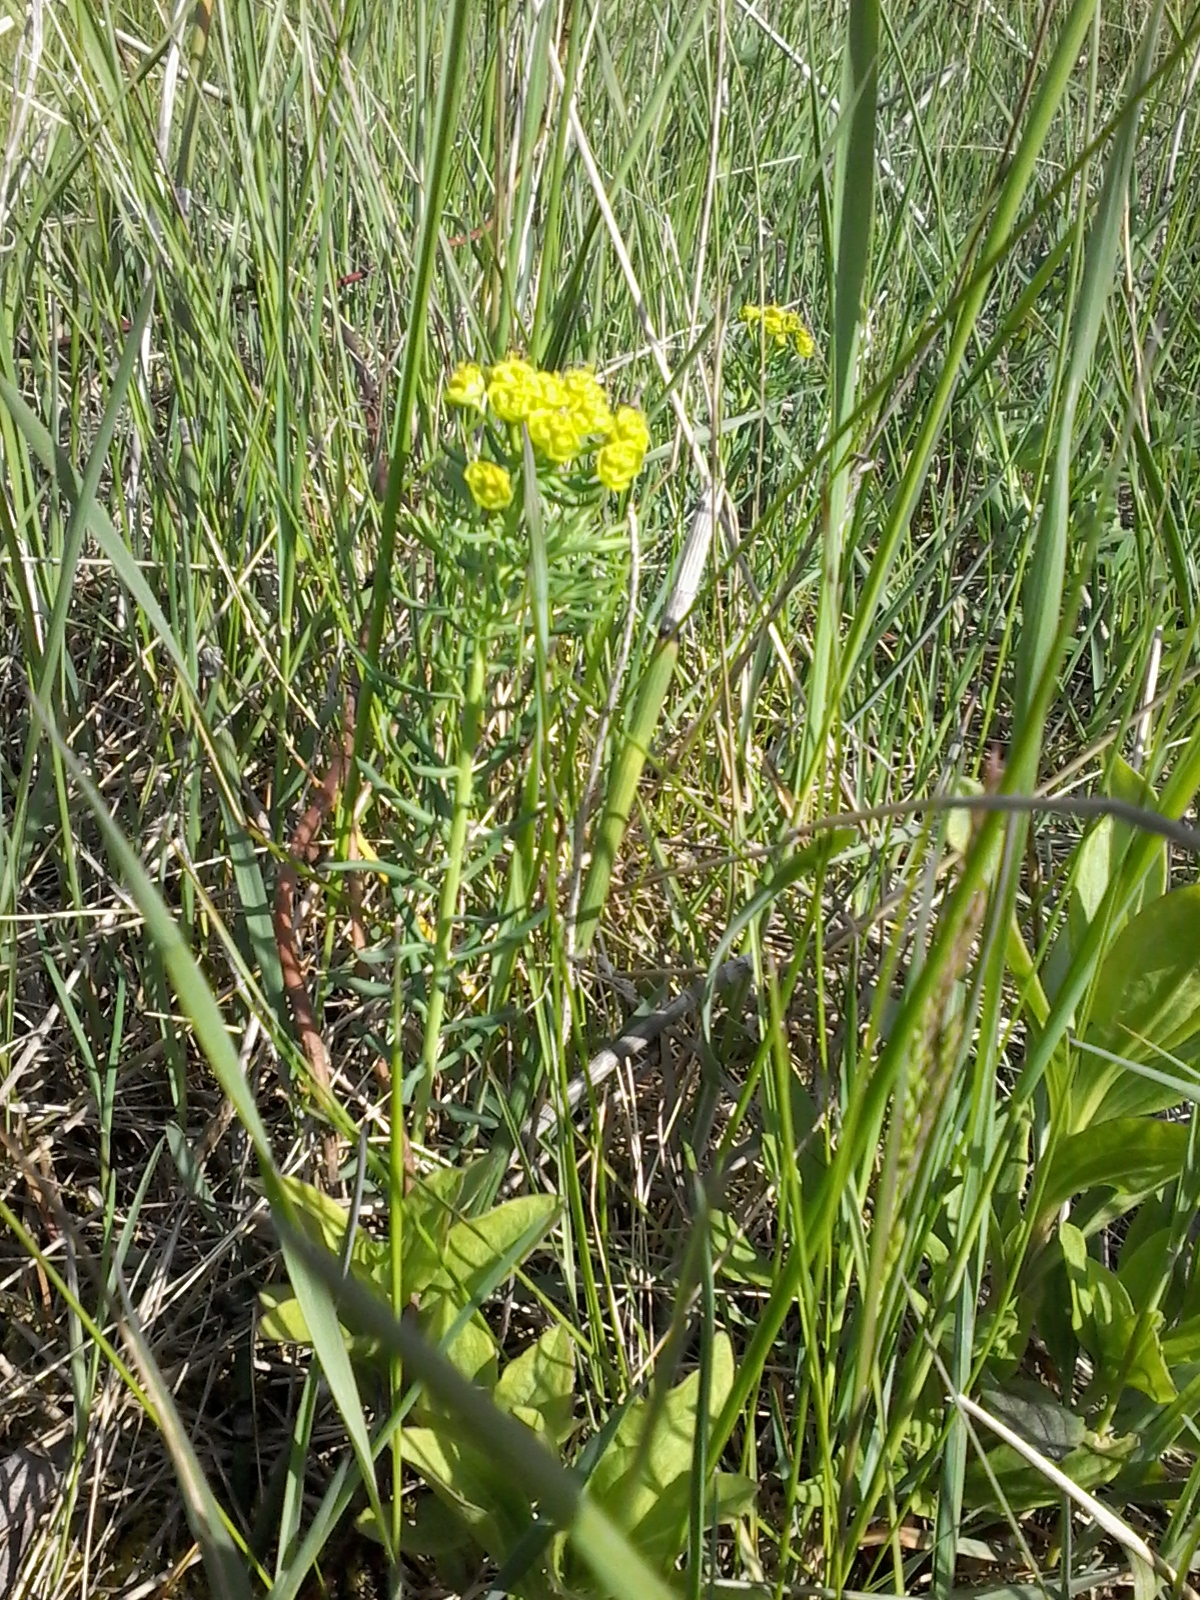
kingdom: Plantae
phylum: Tracheophyta
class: Magnoliopsida
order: Malpighiales
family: Euphorbiaceae
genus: Euphorbia
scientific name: Euphorbia cyparissias
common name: Cypress spurge
